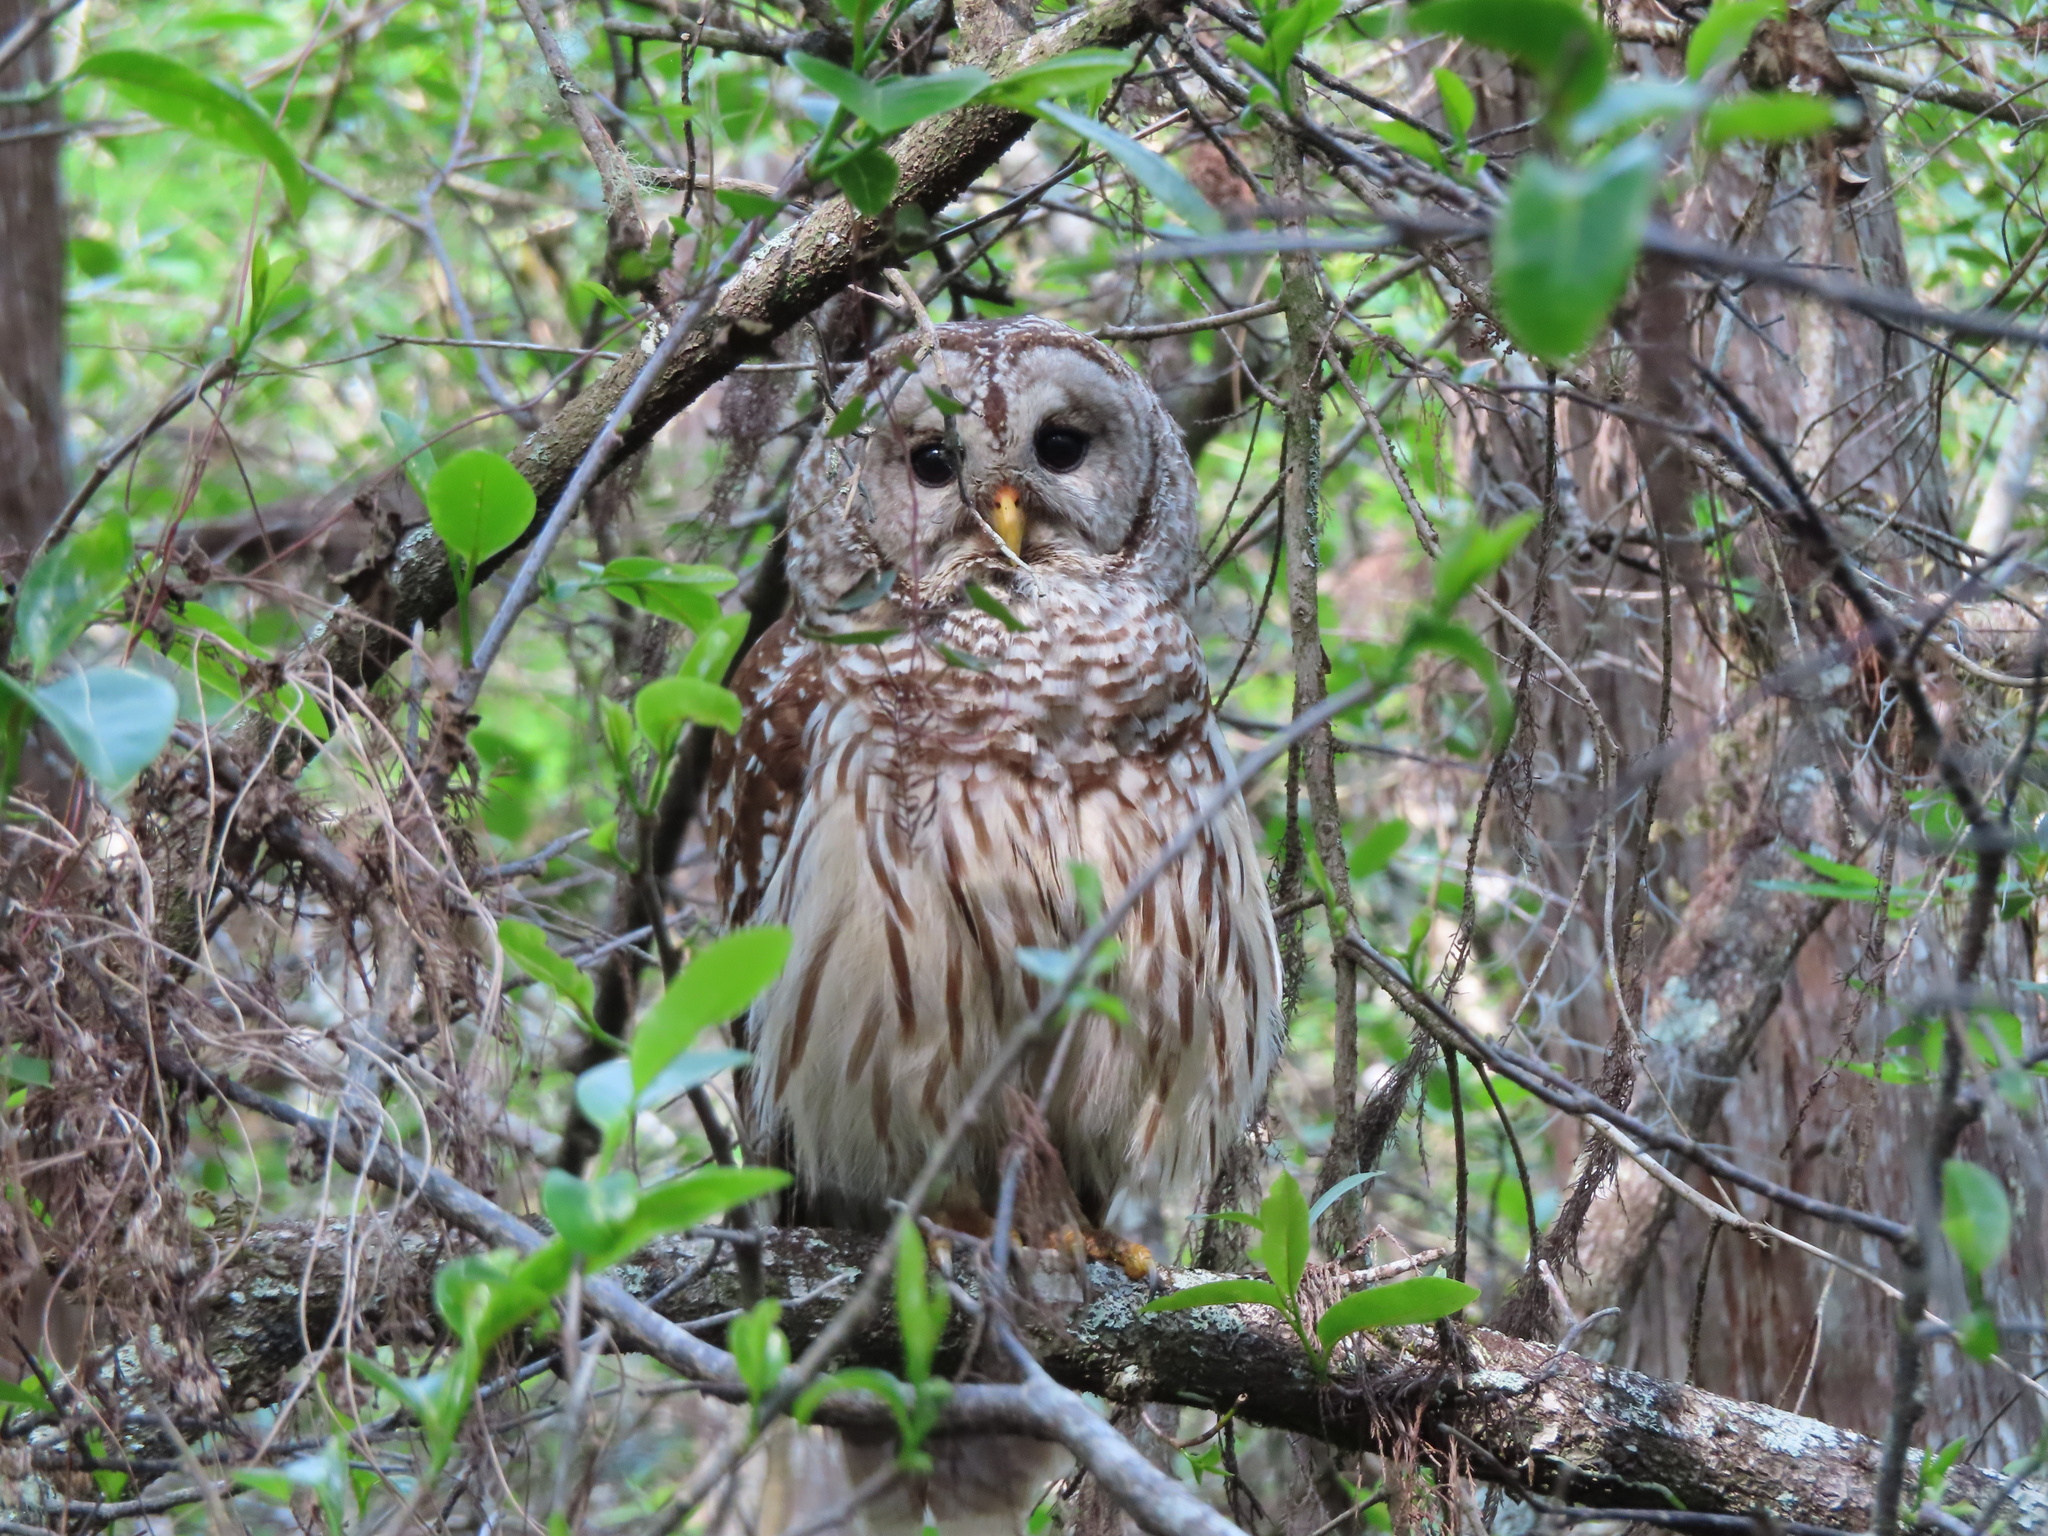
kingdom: Animalia
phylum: Chordata
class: Aves
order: Strigiformes
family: Strigidae
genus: Strix
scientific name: Strix varia
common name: Barred owl
